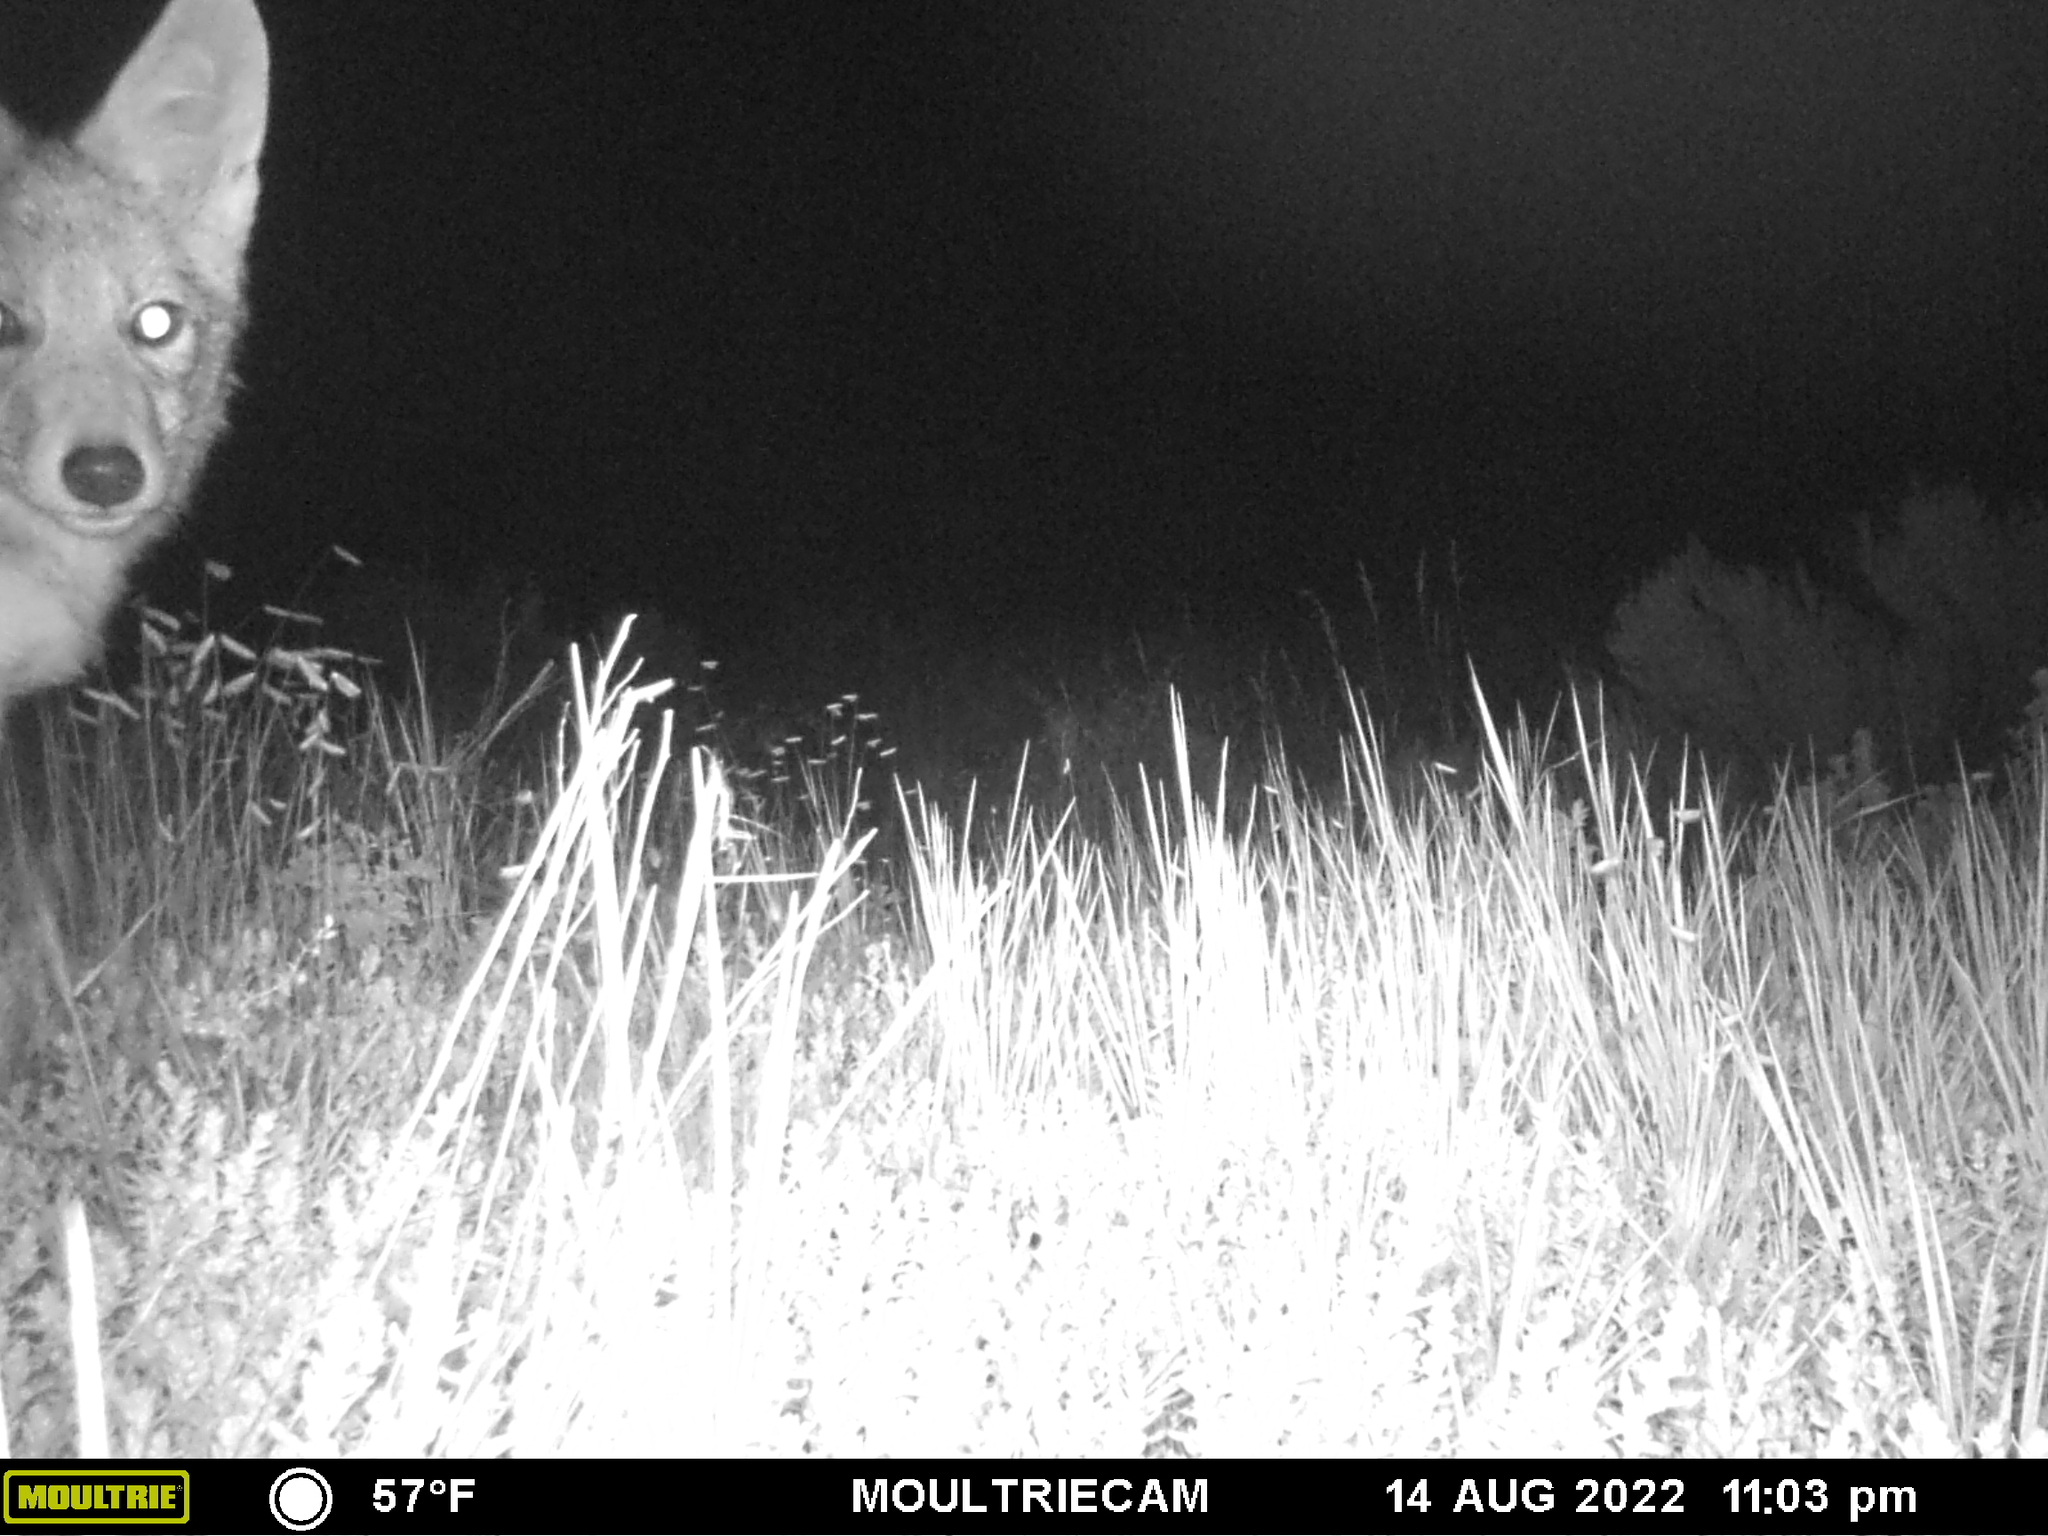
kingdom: Animalia
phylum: Chordata
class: Mammalia
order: Carnivora
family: Canidae
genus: Canis
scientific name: Canis latrans
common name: Coyote
